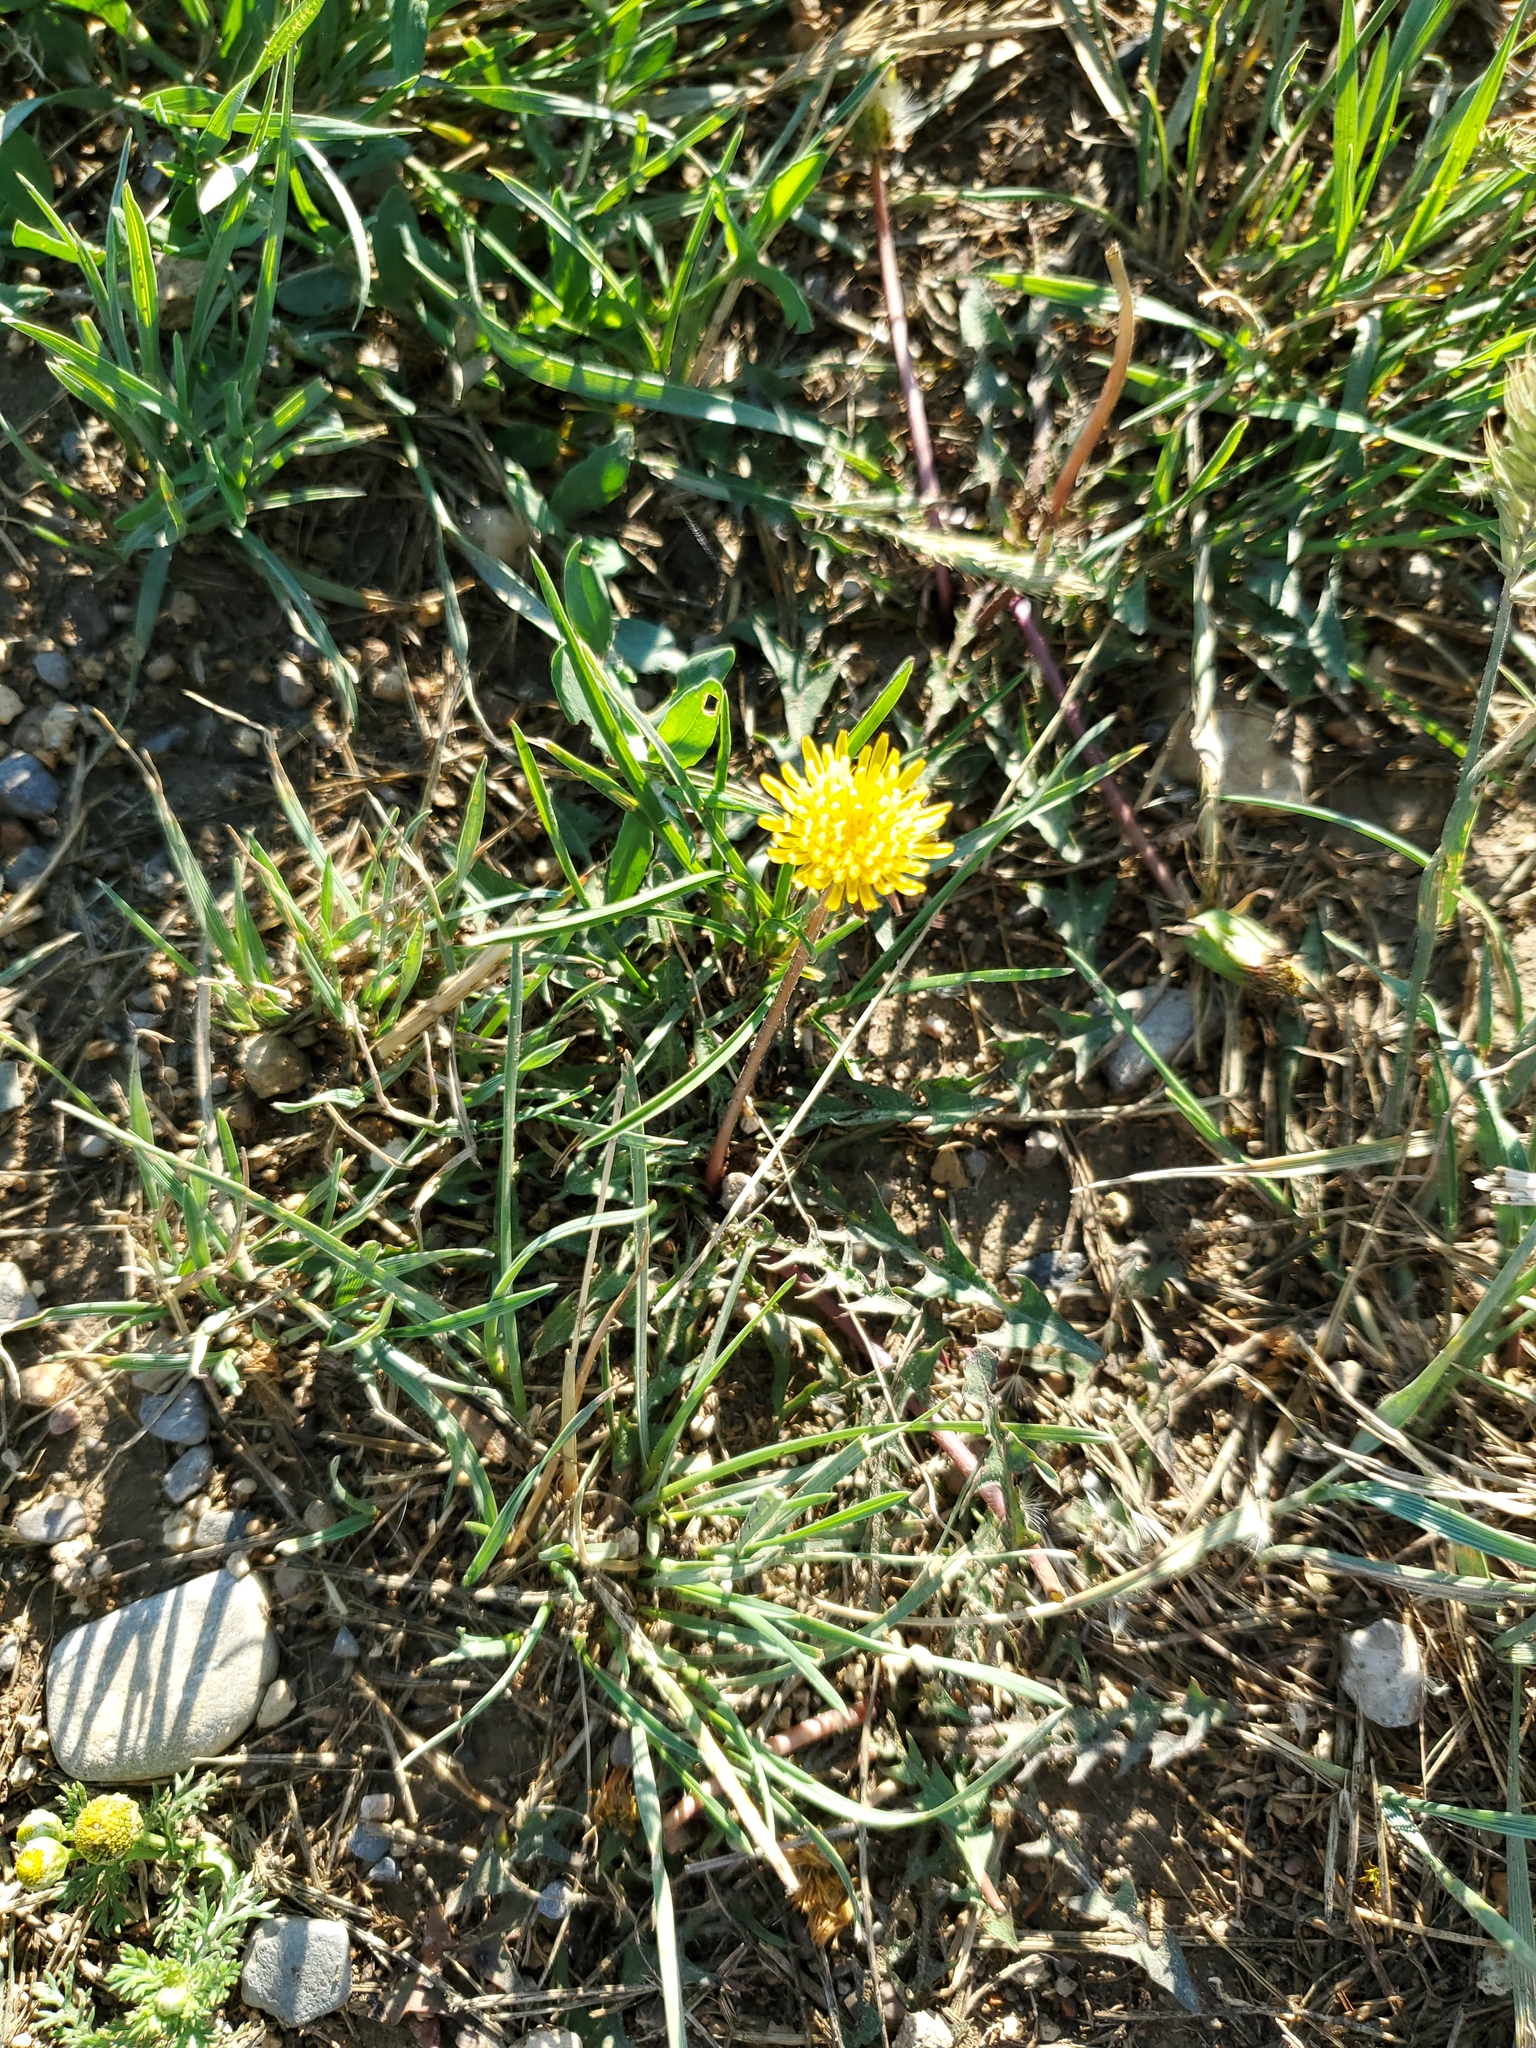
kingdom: Plantae
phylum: Tracheophyta
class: Magnoliopsida
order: Asterales
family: Asteraceae
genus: Taraxacum
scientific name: Taraxacum officinale
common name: Common dandelion
